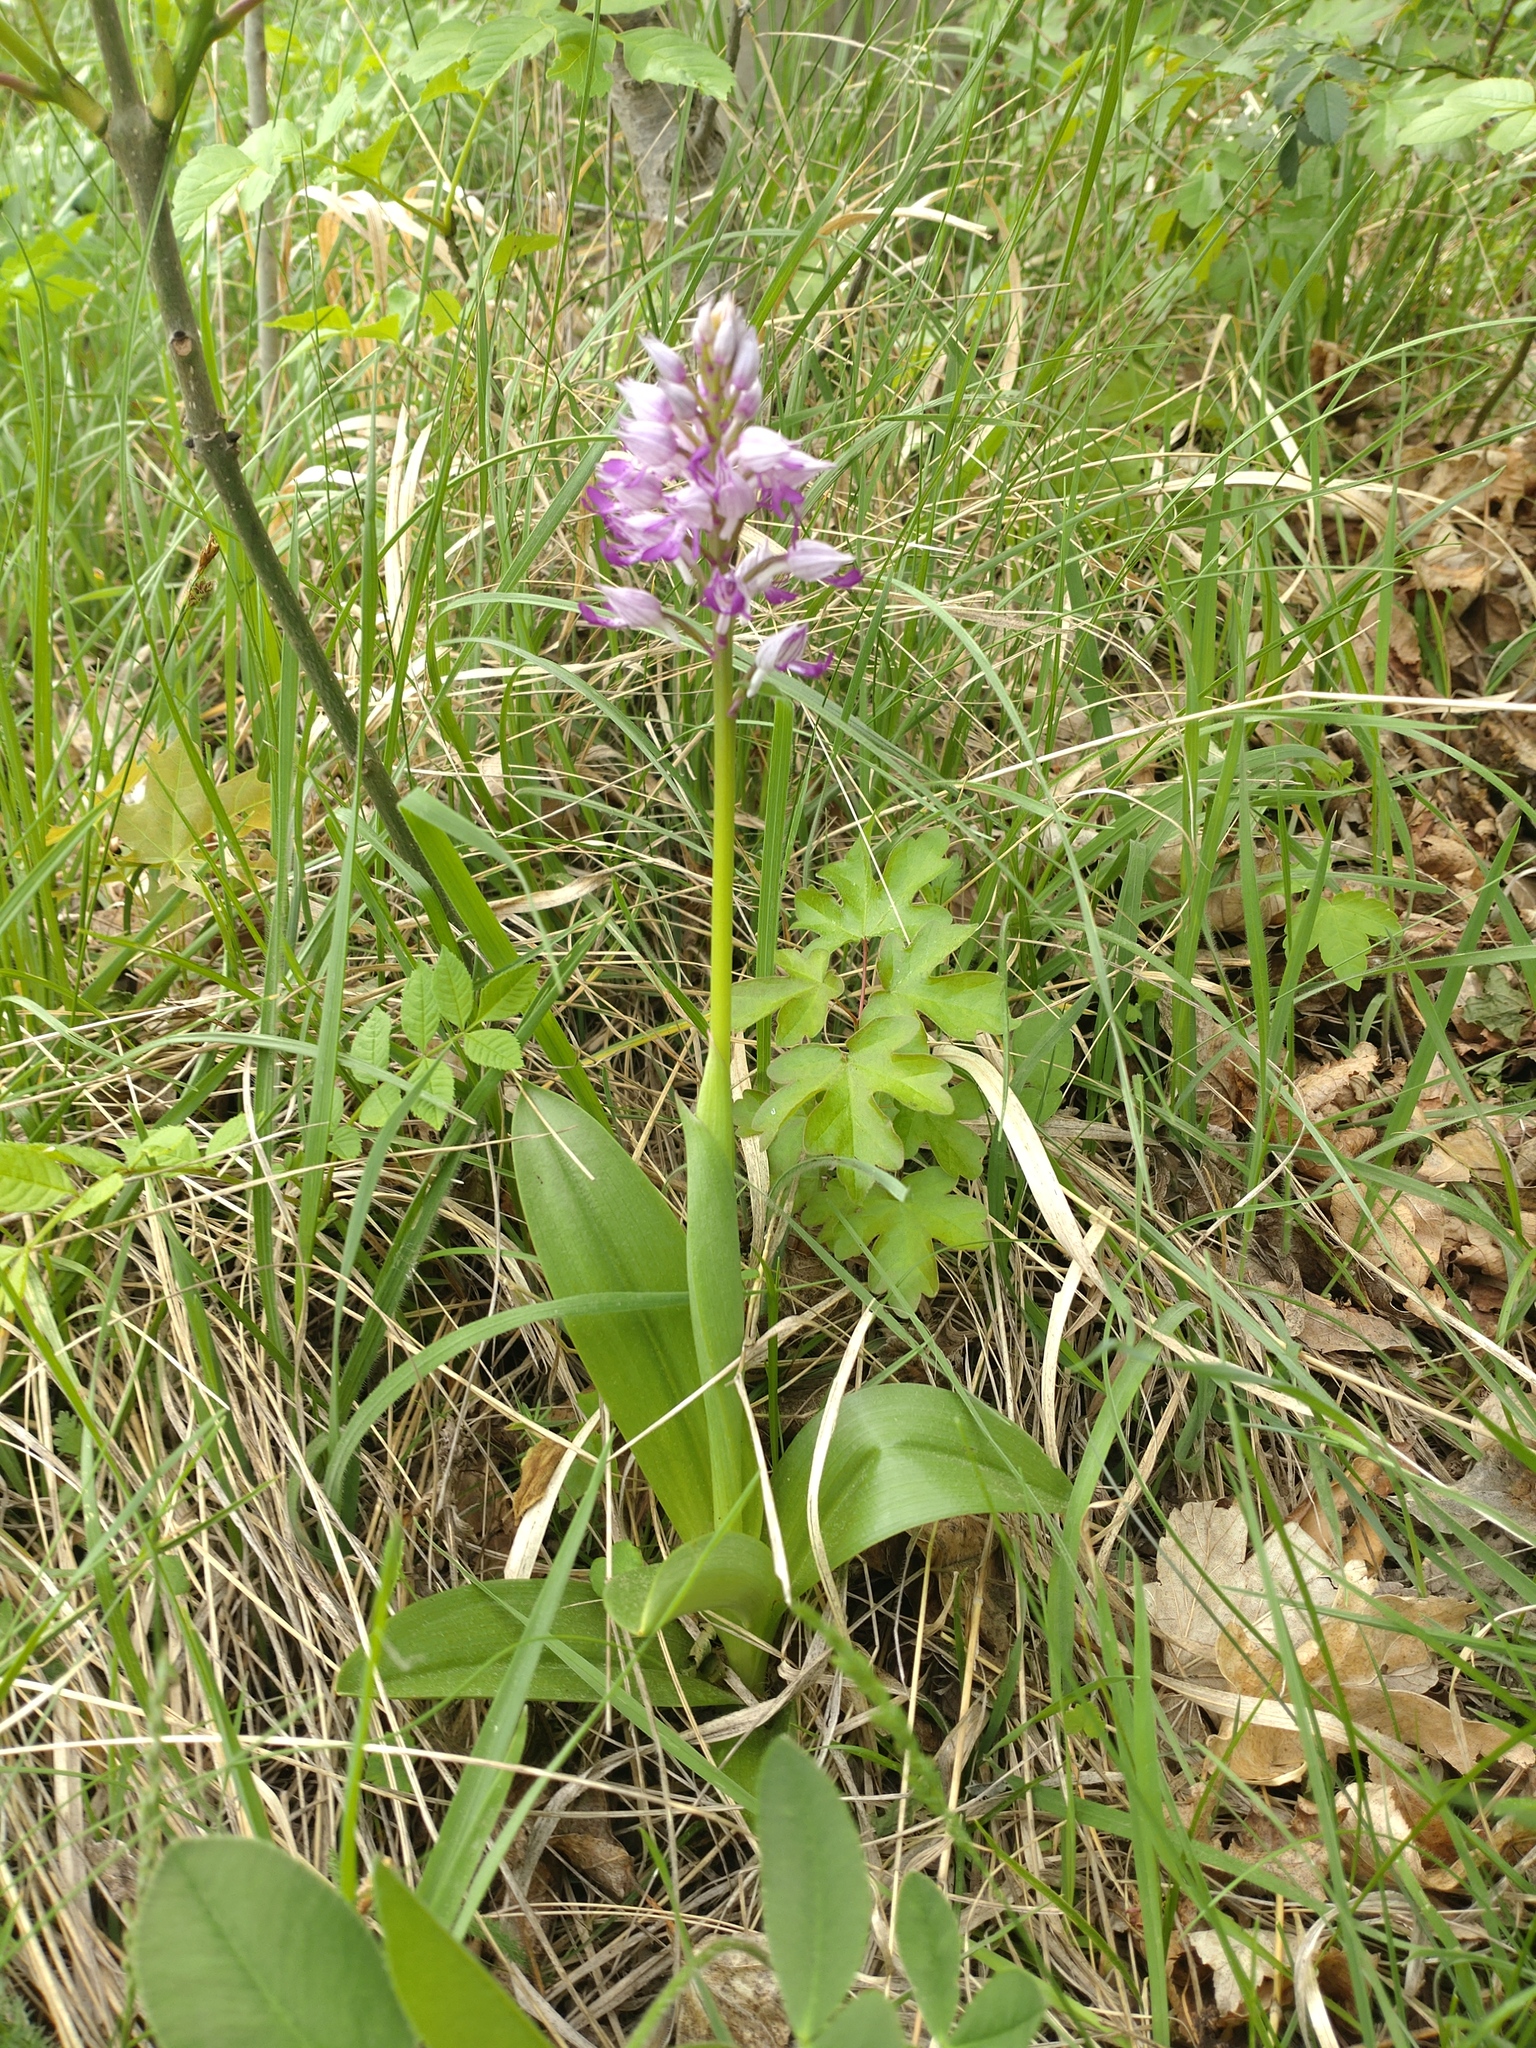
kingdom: Plantae
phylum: Tracheophyta
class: Liliopsida
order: Asparagales
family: Orchidaceae
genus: Orchis
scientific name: Orchis militaris
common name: Military orchid
